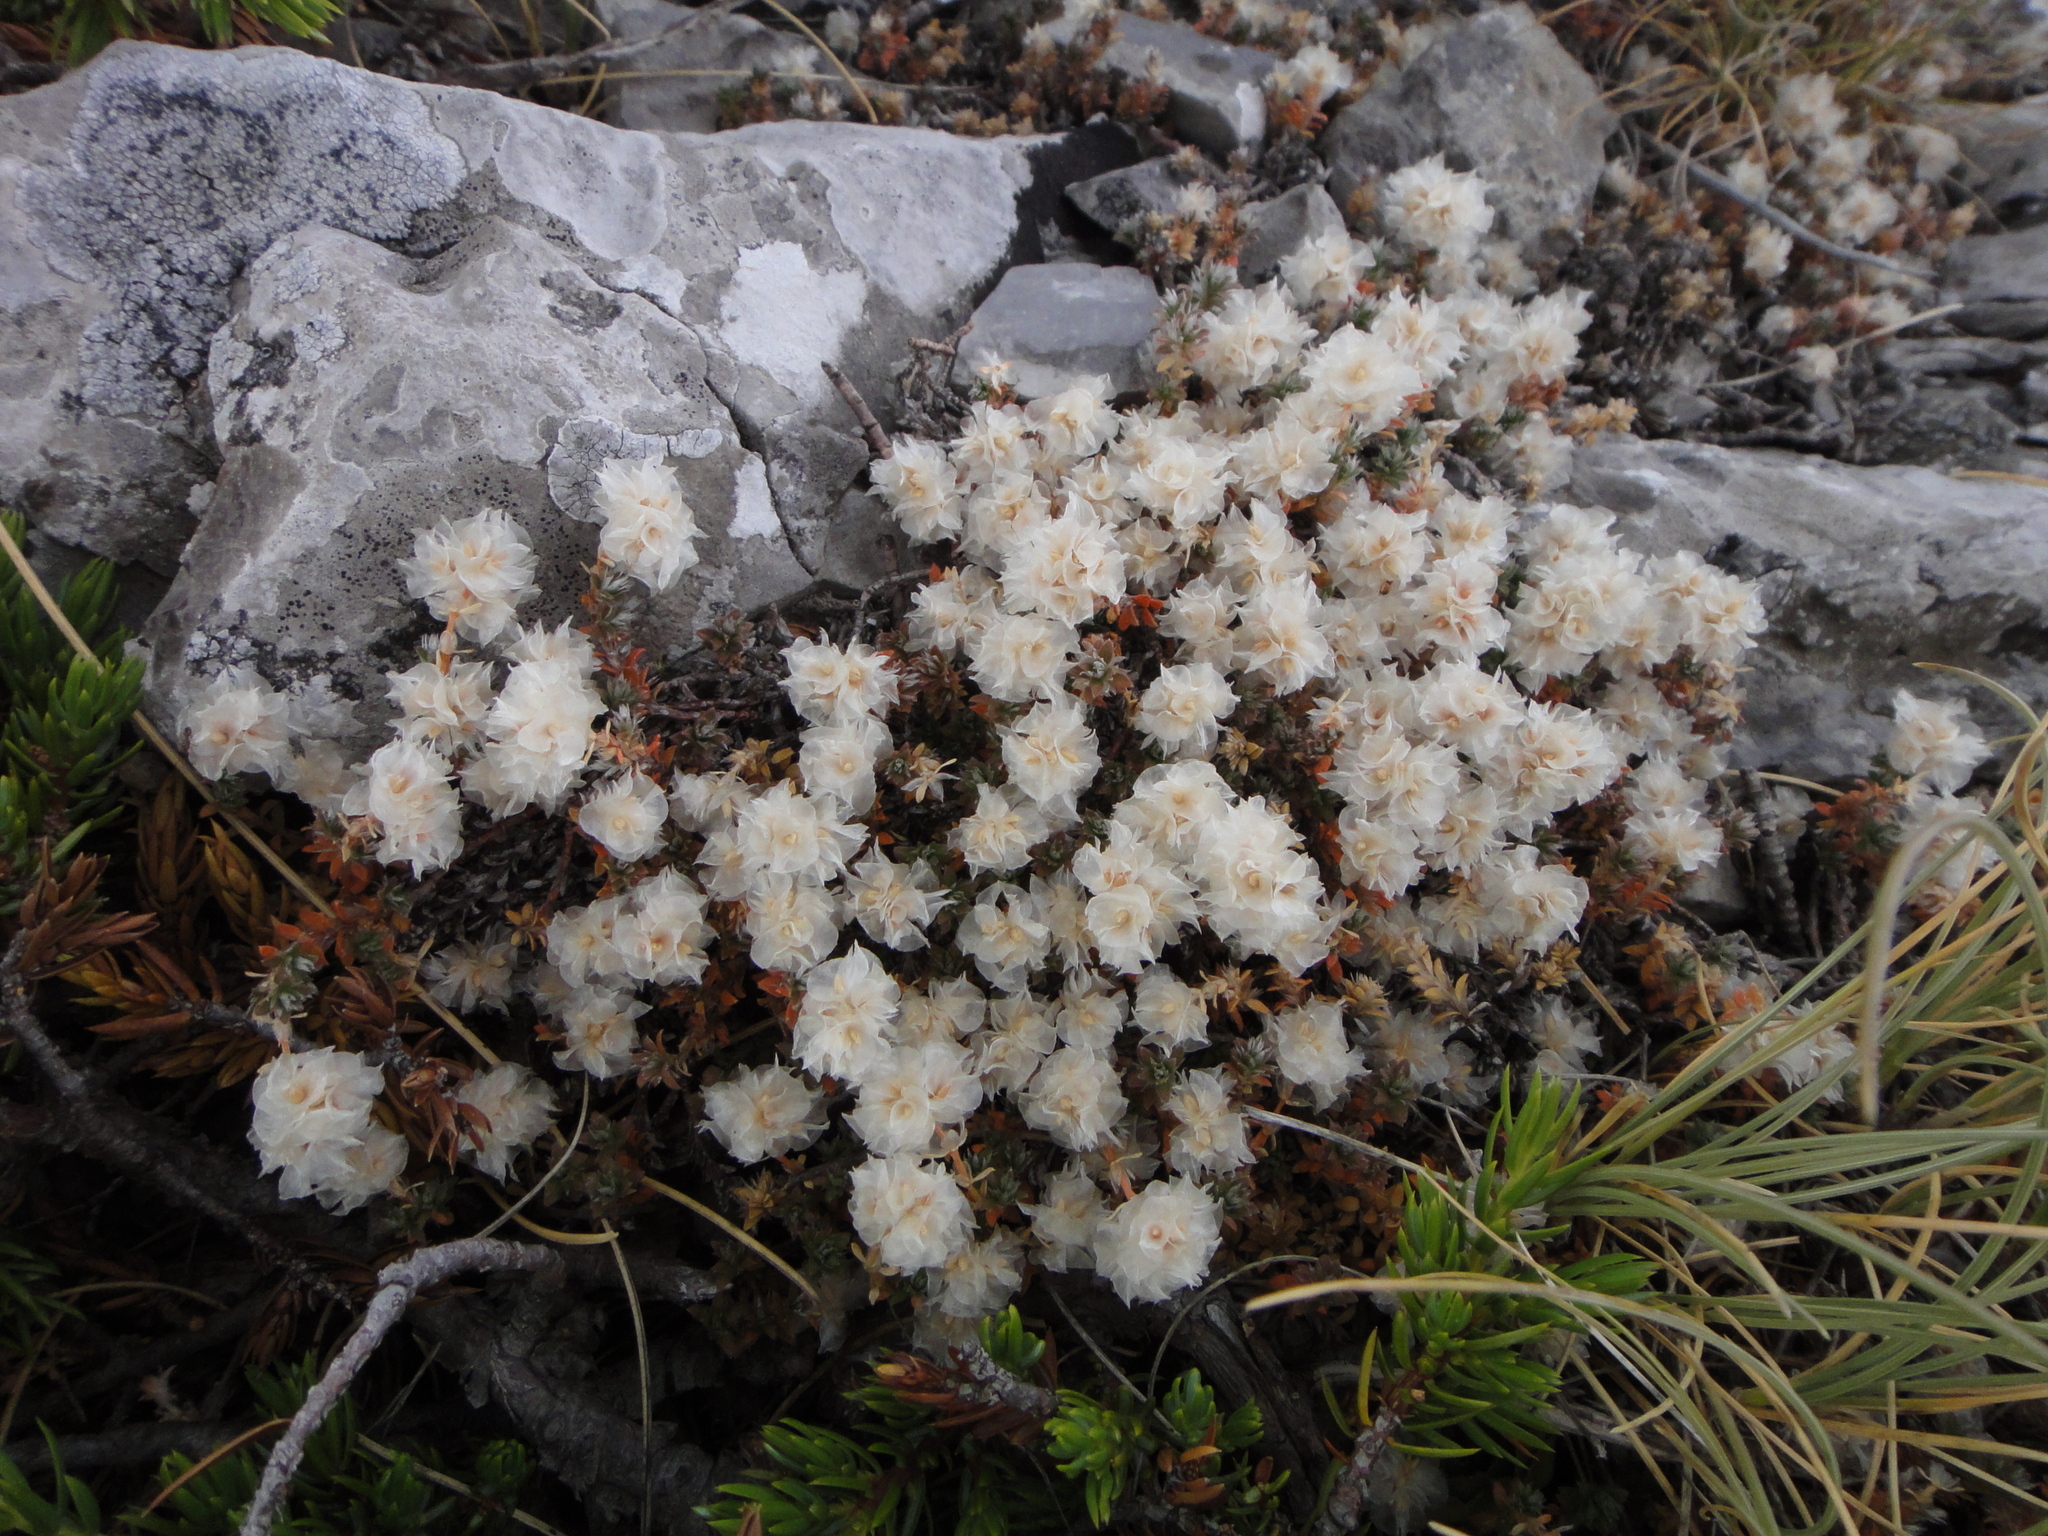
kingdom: Plantae
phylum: Tracheophyta
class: Magnoliopsida
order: Caryophyllales
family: Caryophyllaceae
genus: Paronychia
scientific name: Paronychia kapela
